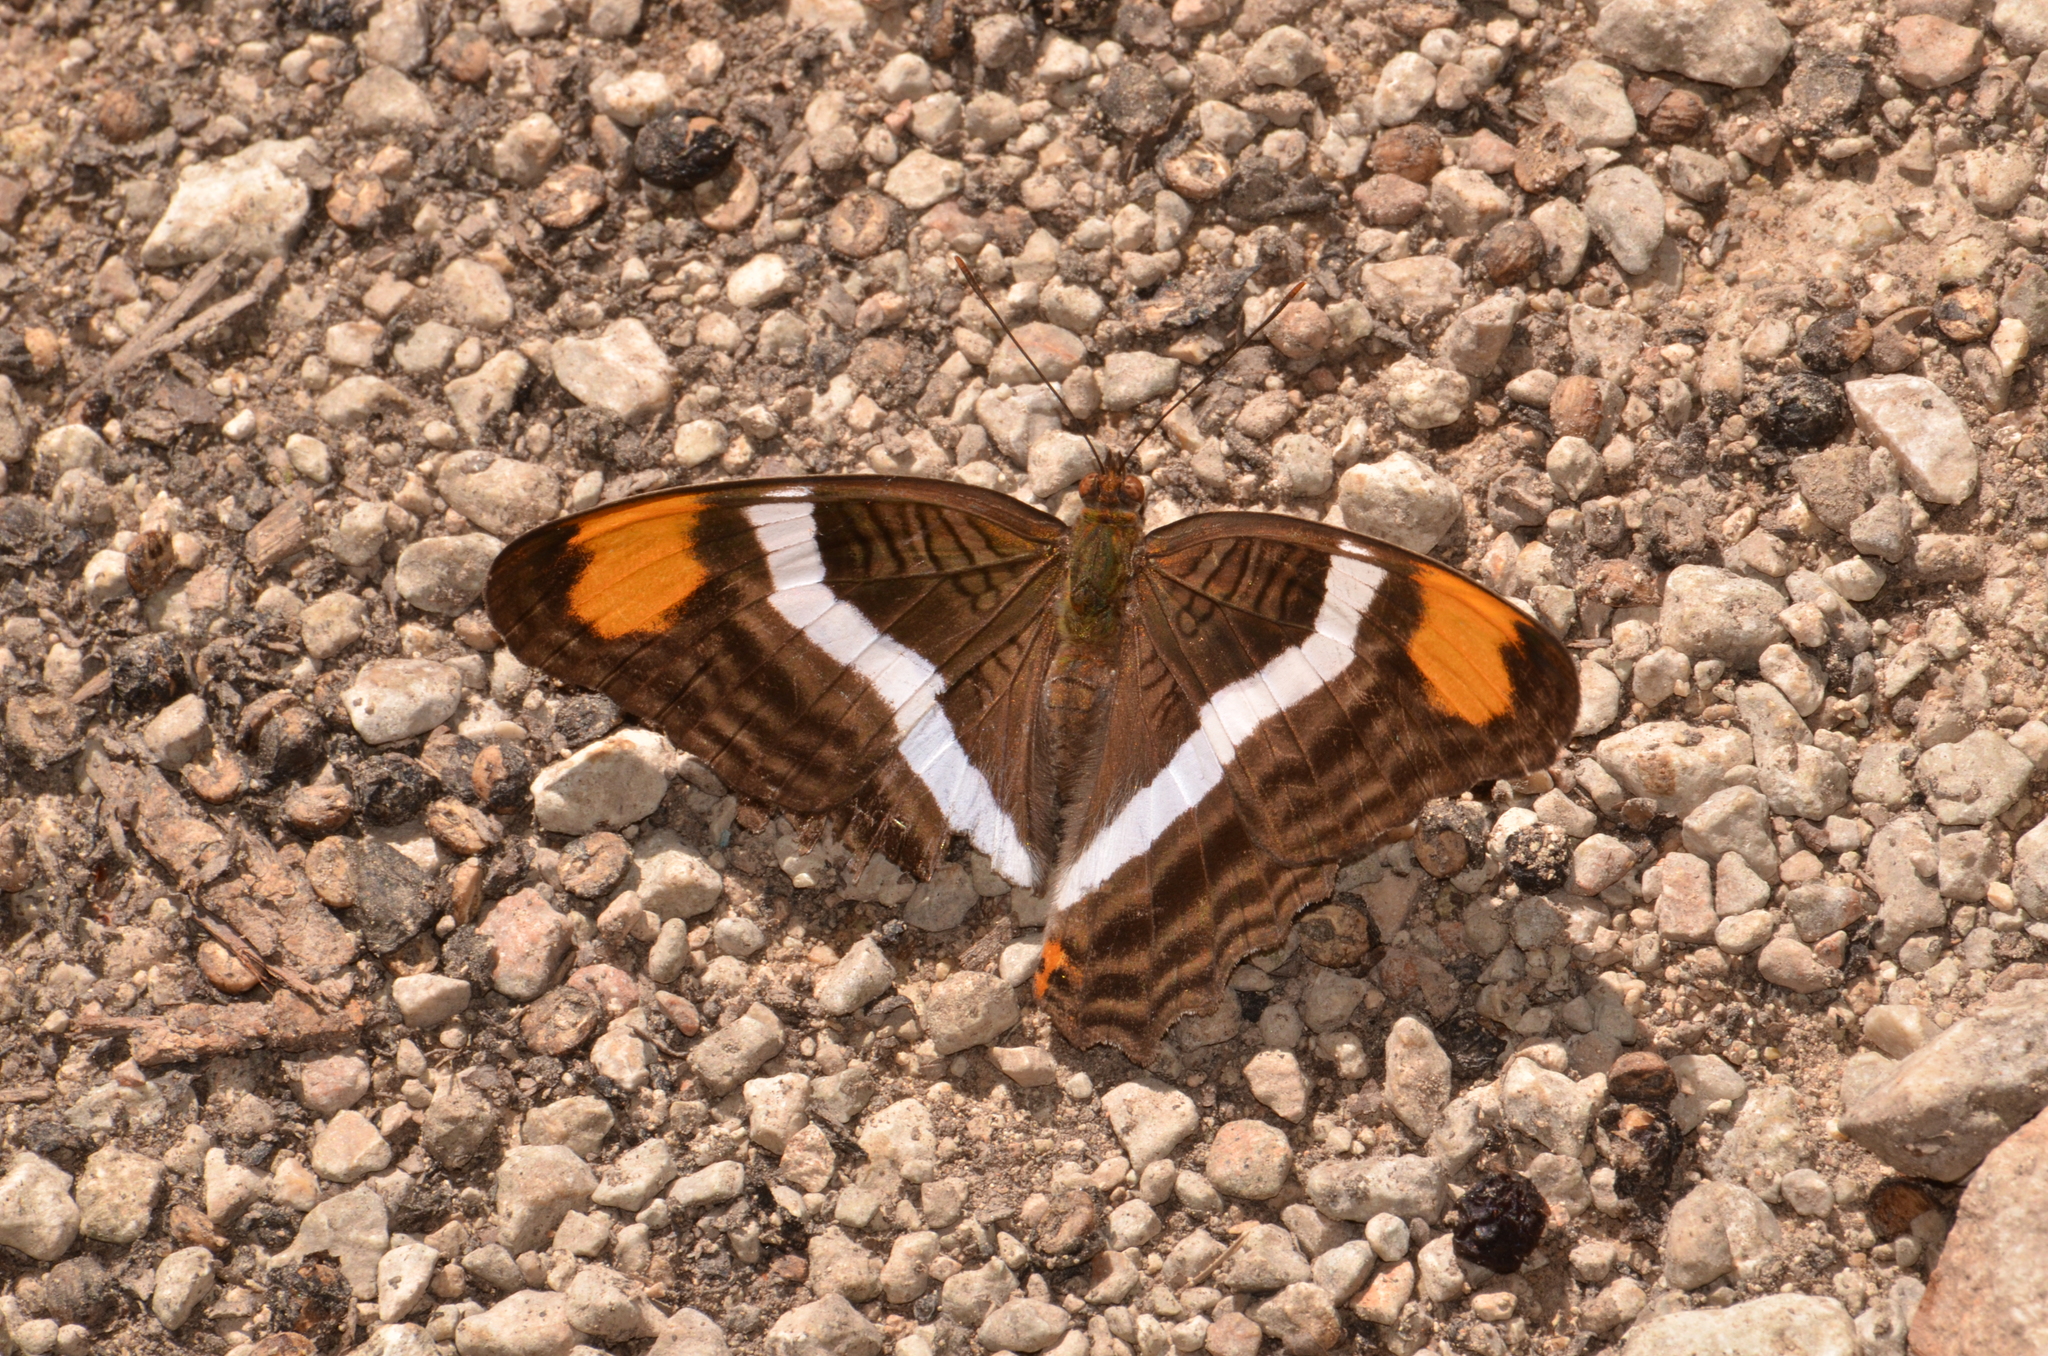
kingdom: Animalia
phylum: Arthropoda
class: Insecta
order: Lepidoptera
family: Nymphalidae
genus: Limenitis
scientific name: Limenitis fessonia
